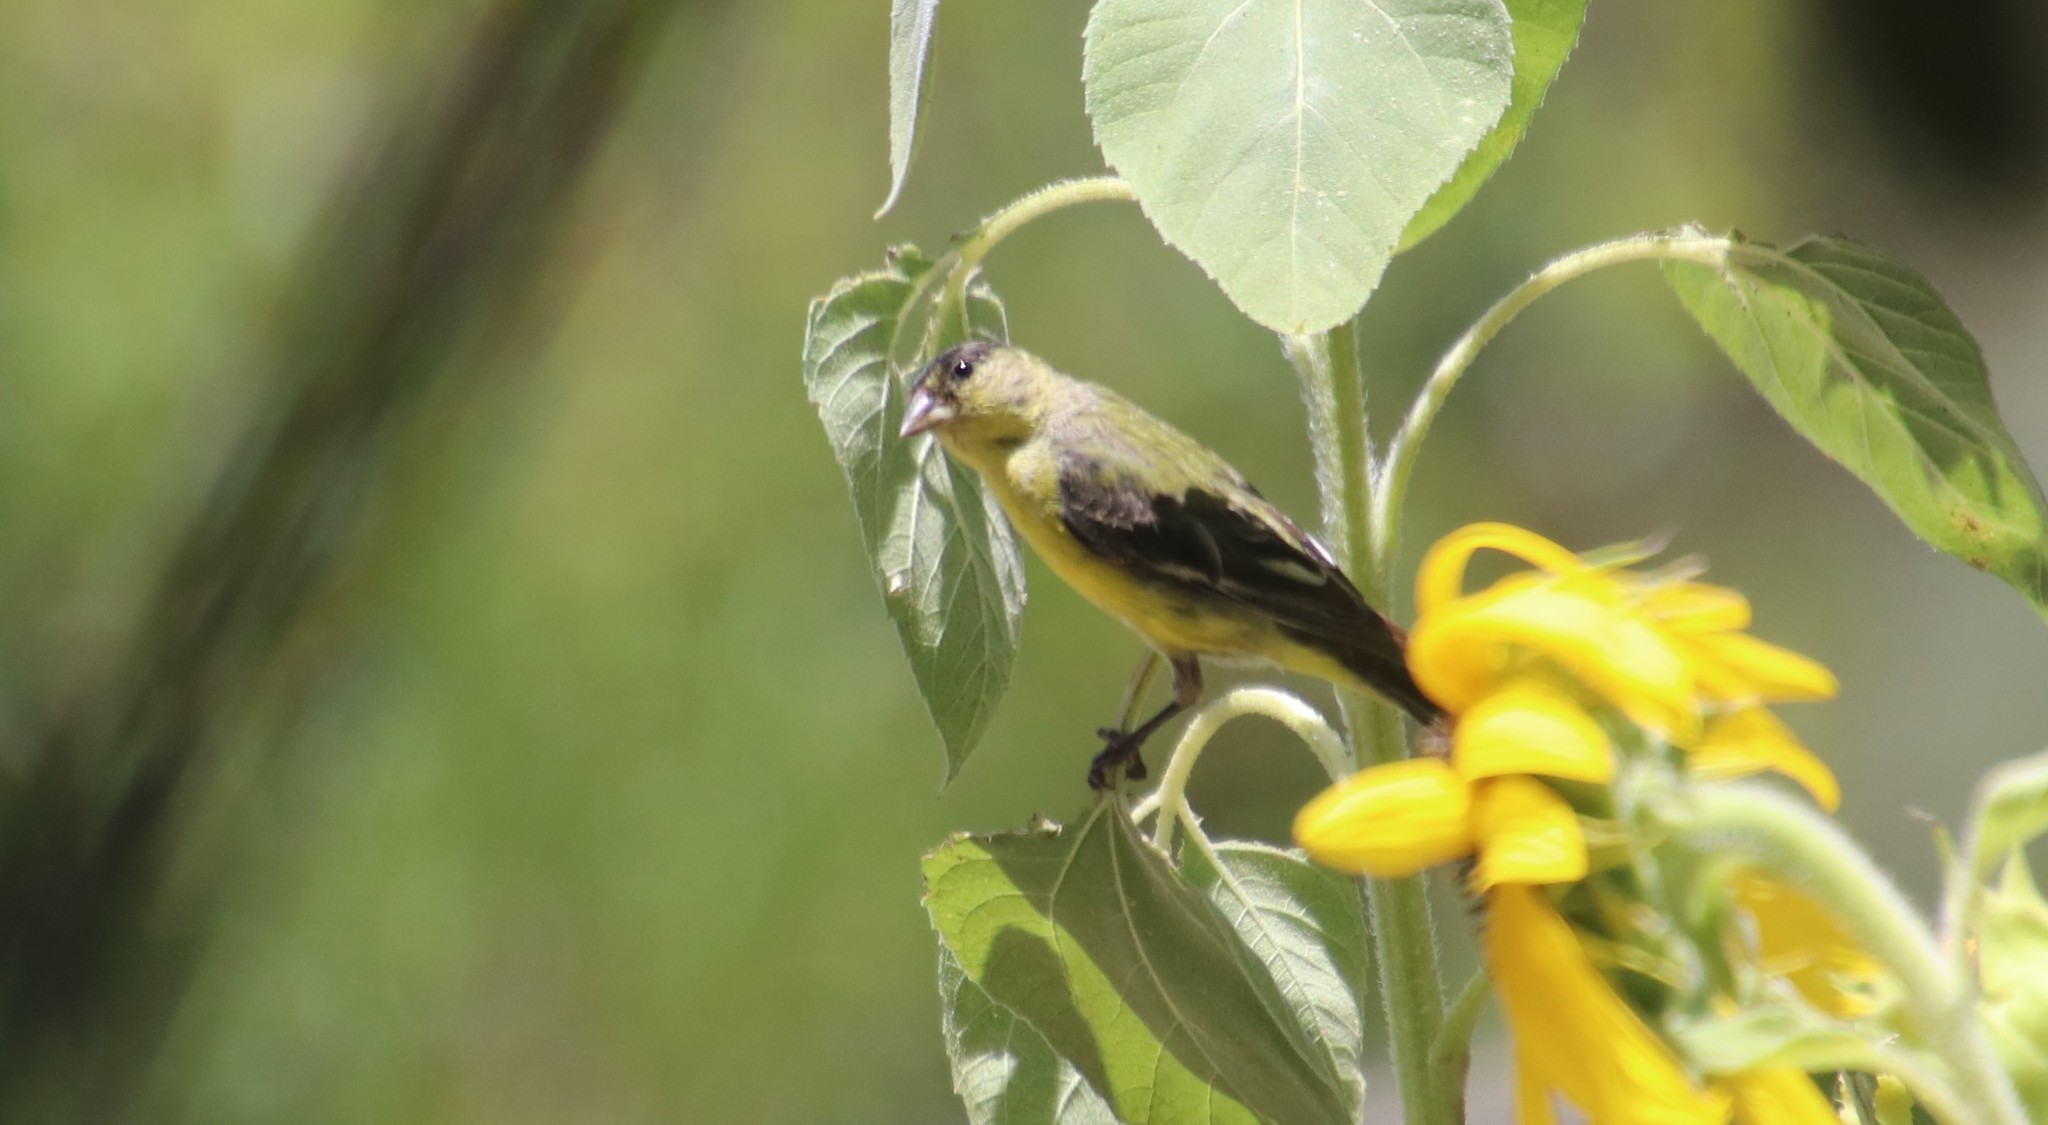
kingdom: Animalia
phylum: Chordata
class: Aves
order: Passeriformes
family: Fringillidae
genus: Spinus
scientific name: Spinus psaltria
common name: Lesser goldfinch
